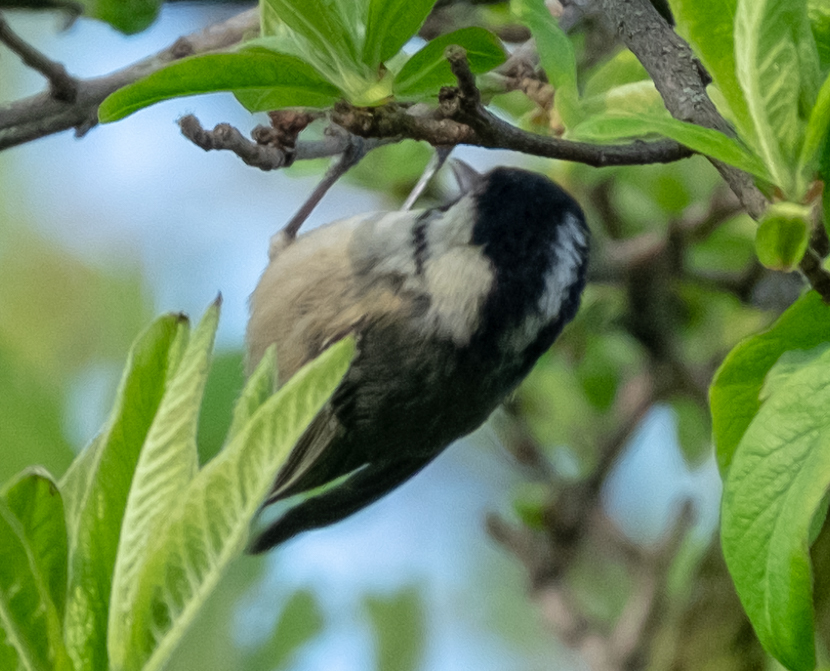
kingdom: Animalia
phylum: Chordata
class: Aves
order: Passeriformes
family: Paridae
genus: Periparus
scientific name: Periparus ater
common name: Coal tit
